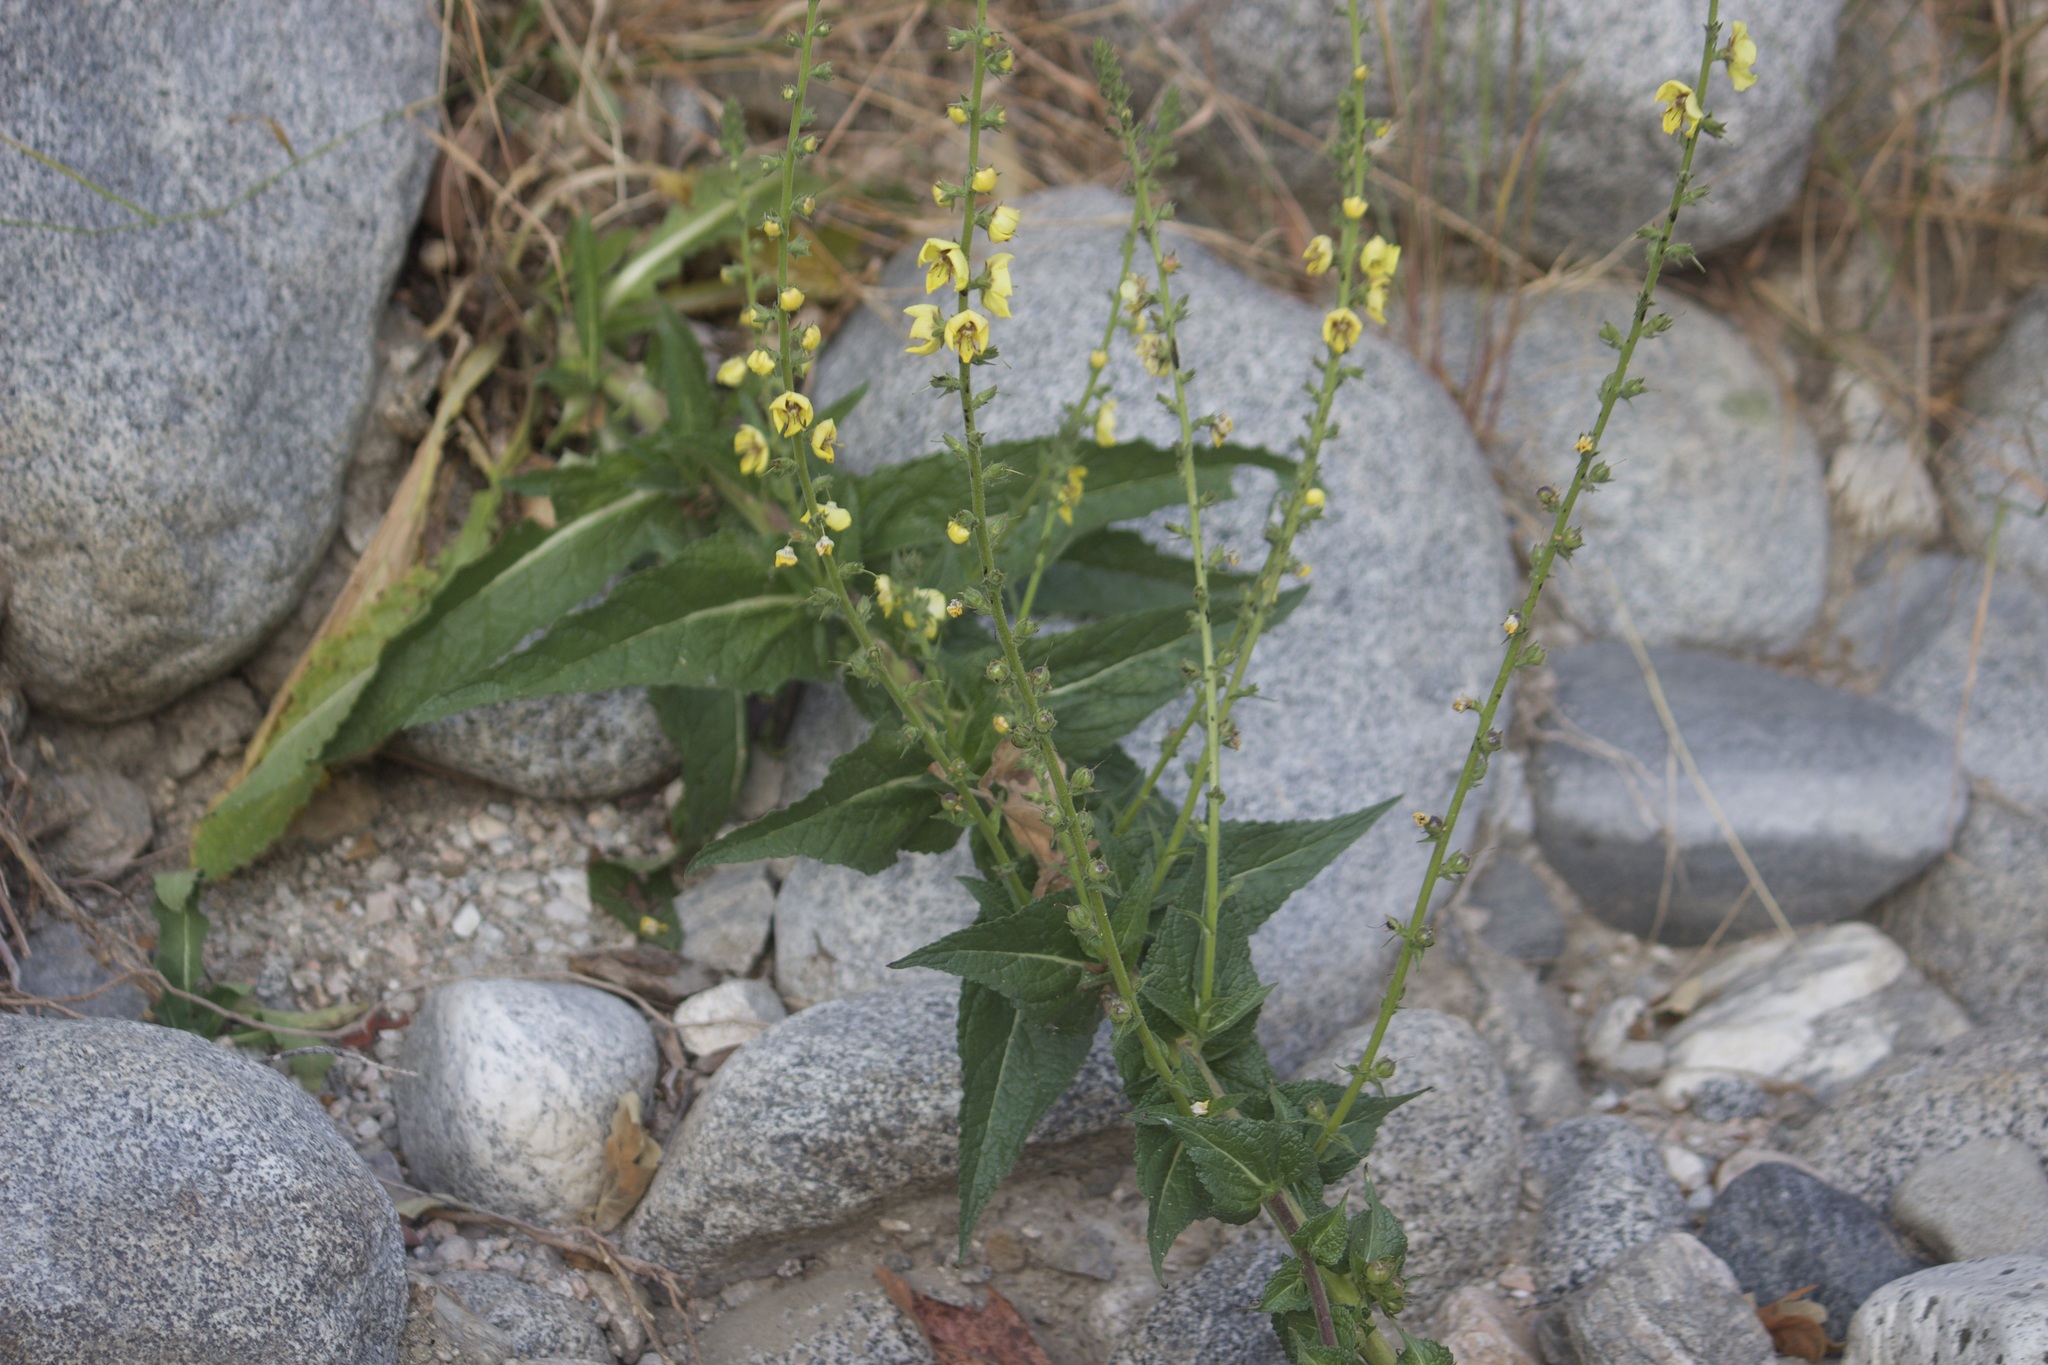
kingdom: Plantae
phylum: Tracheophyta
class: Magnoliopsida
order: Lamiales
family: Scrophulariaceae
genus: Verbascum
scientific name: Verbascum virgatum
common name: Twiggy mullein
